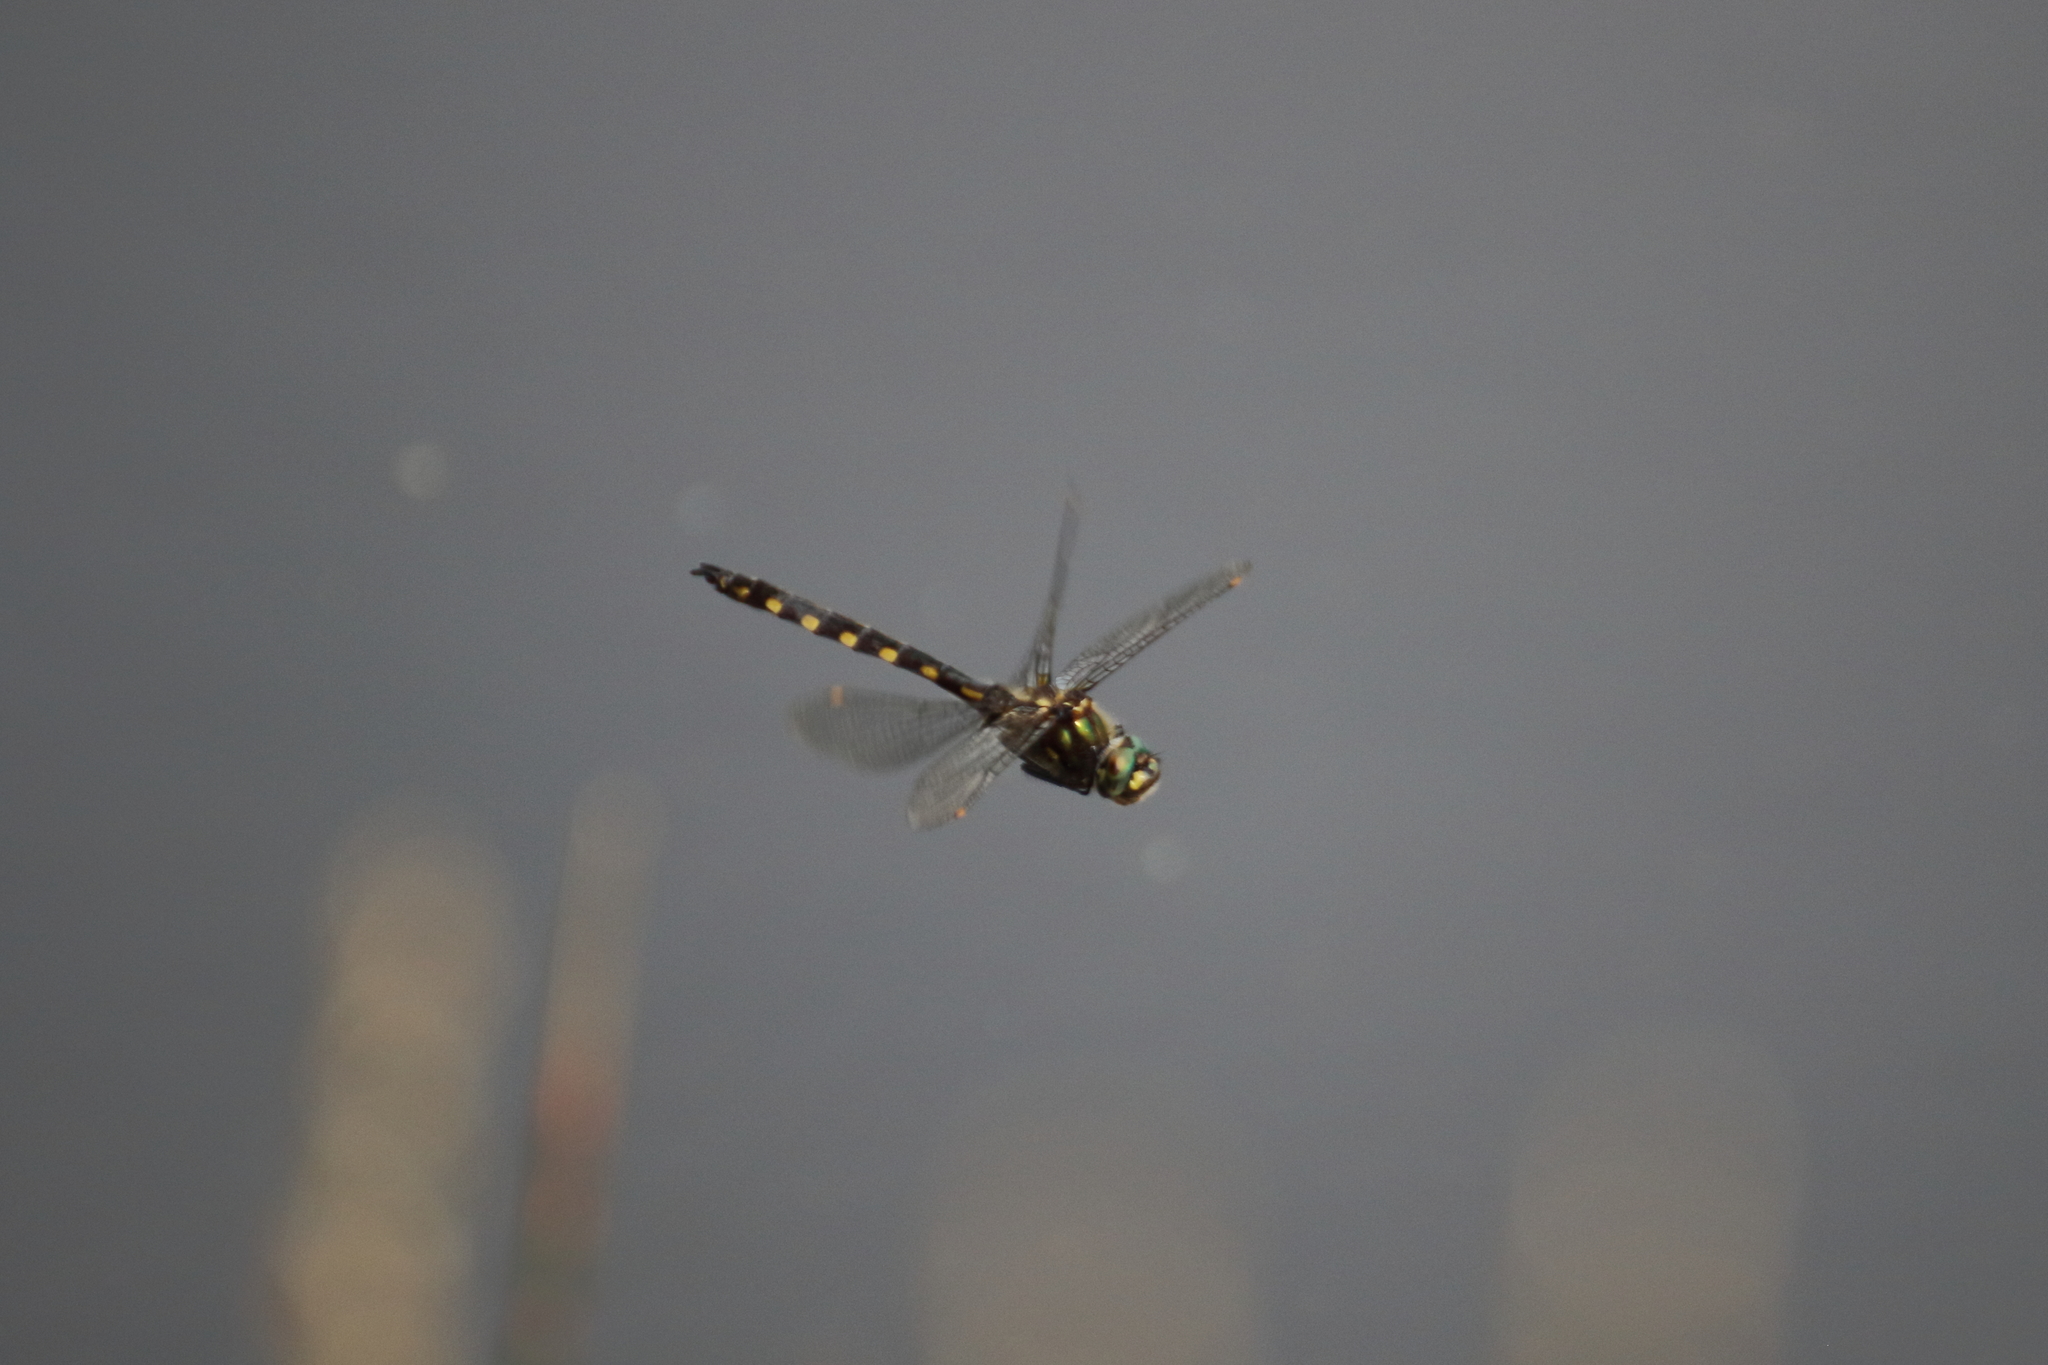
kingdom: Animalia
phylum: Arthropoda
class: Insecta
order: Odonata
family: Corduliidae
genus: Procordulia
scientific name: Procordulia grayi
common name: Yellow spotted dragonfly
